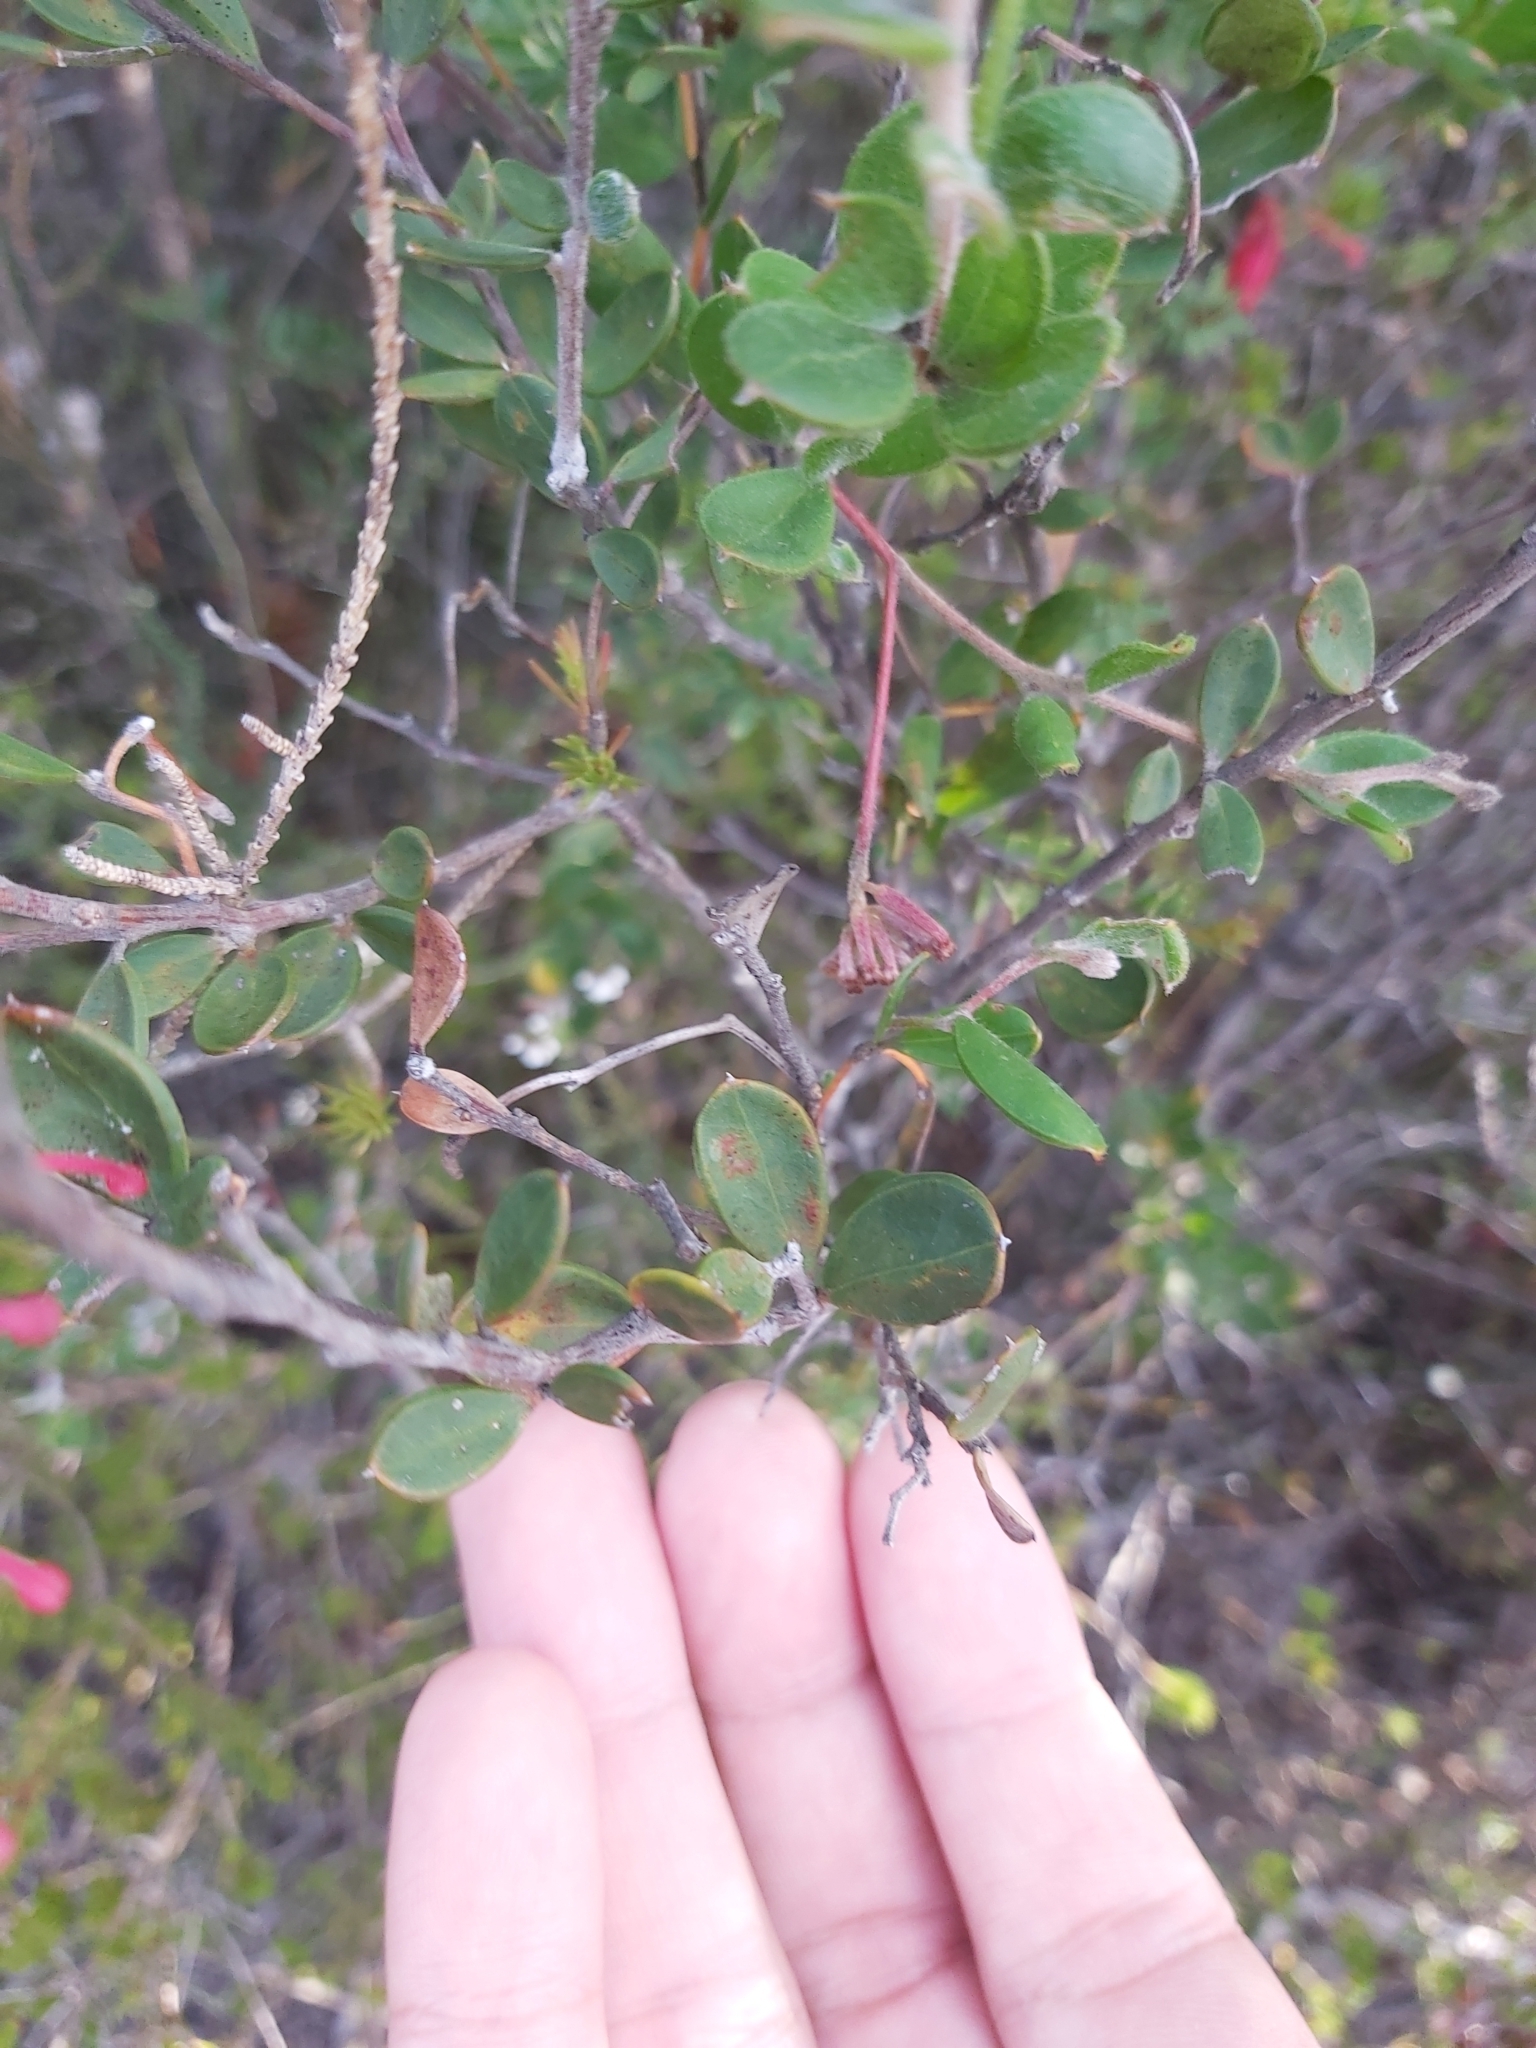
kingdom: Plantae
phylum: Tracheophyta
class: Magnoliopsida
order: Proteales
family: Proteaceae
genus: Grevillea
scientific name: Grevillea speciosa
